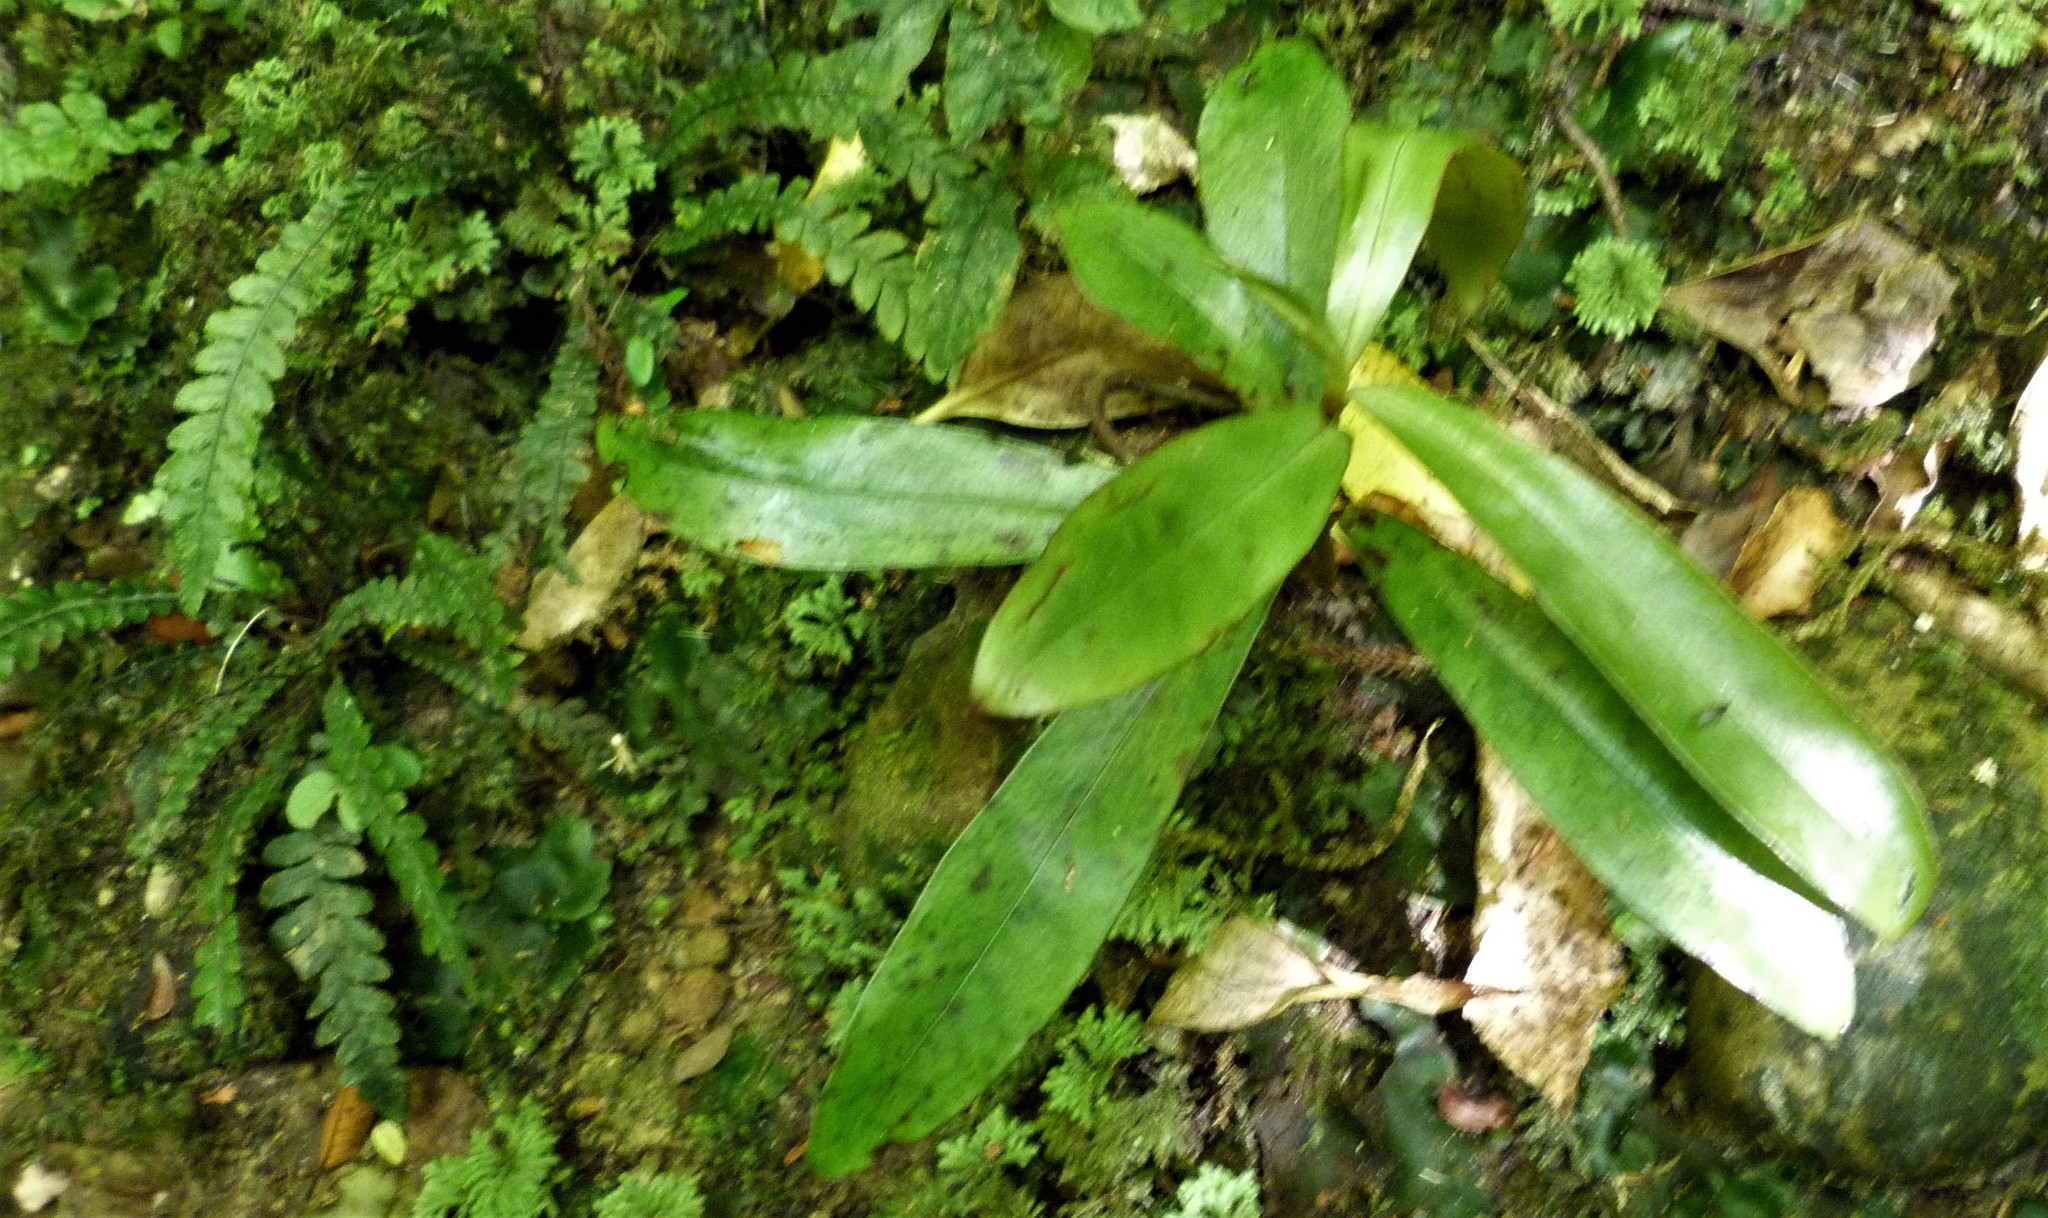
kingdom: Plantae
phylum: Tracheophyta
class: Magnoliopsida
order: Ericales
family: Primulaceae
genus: Myrsine
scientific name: Myrsine salicina
